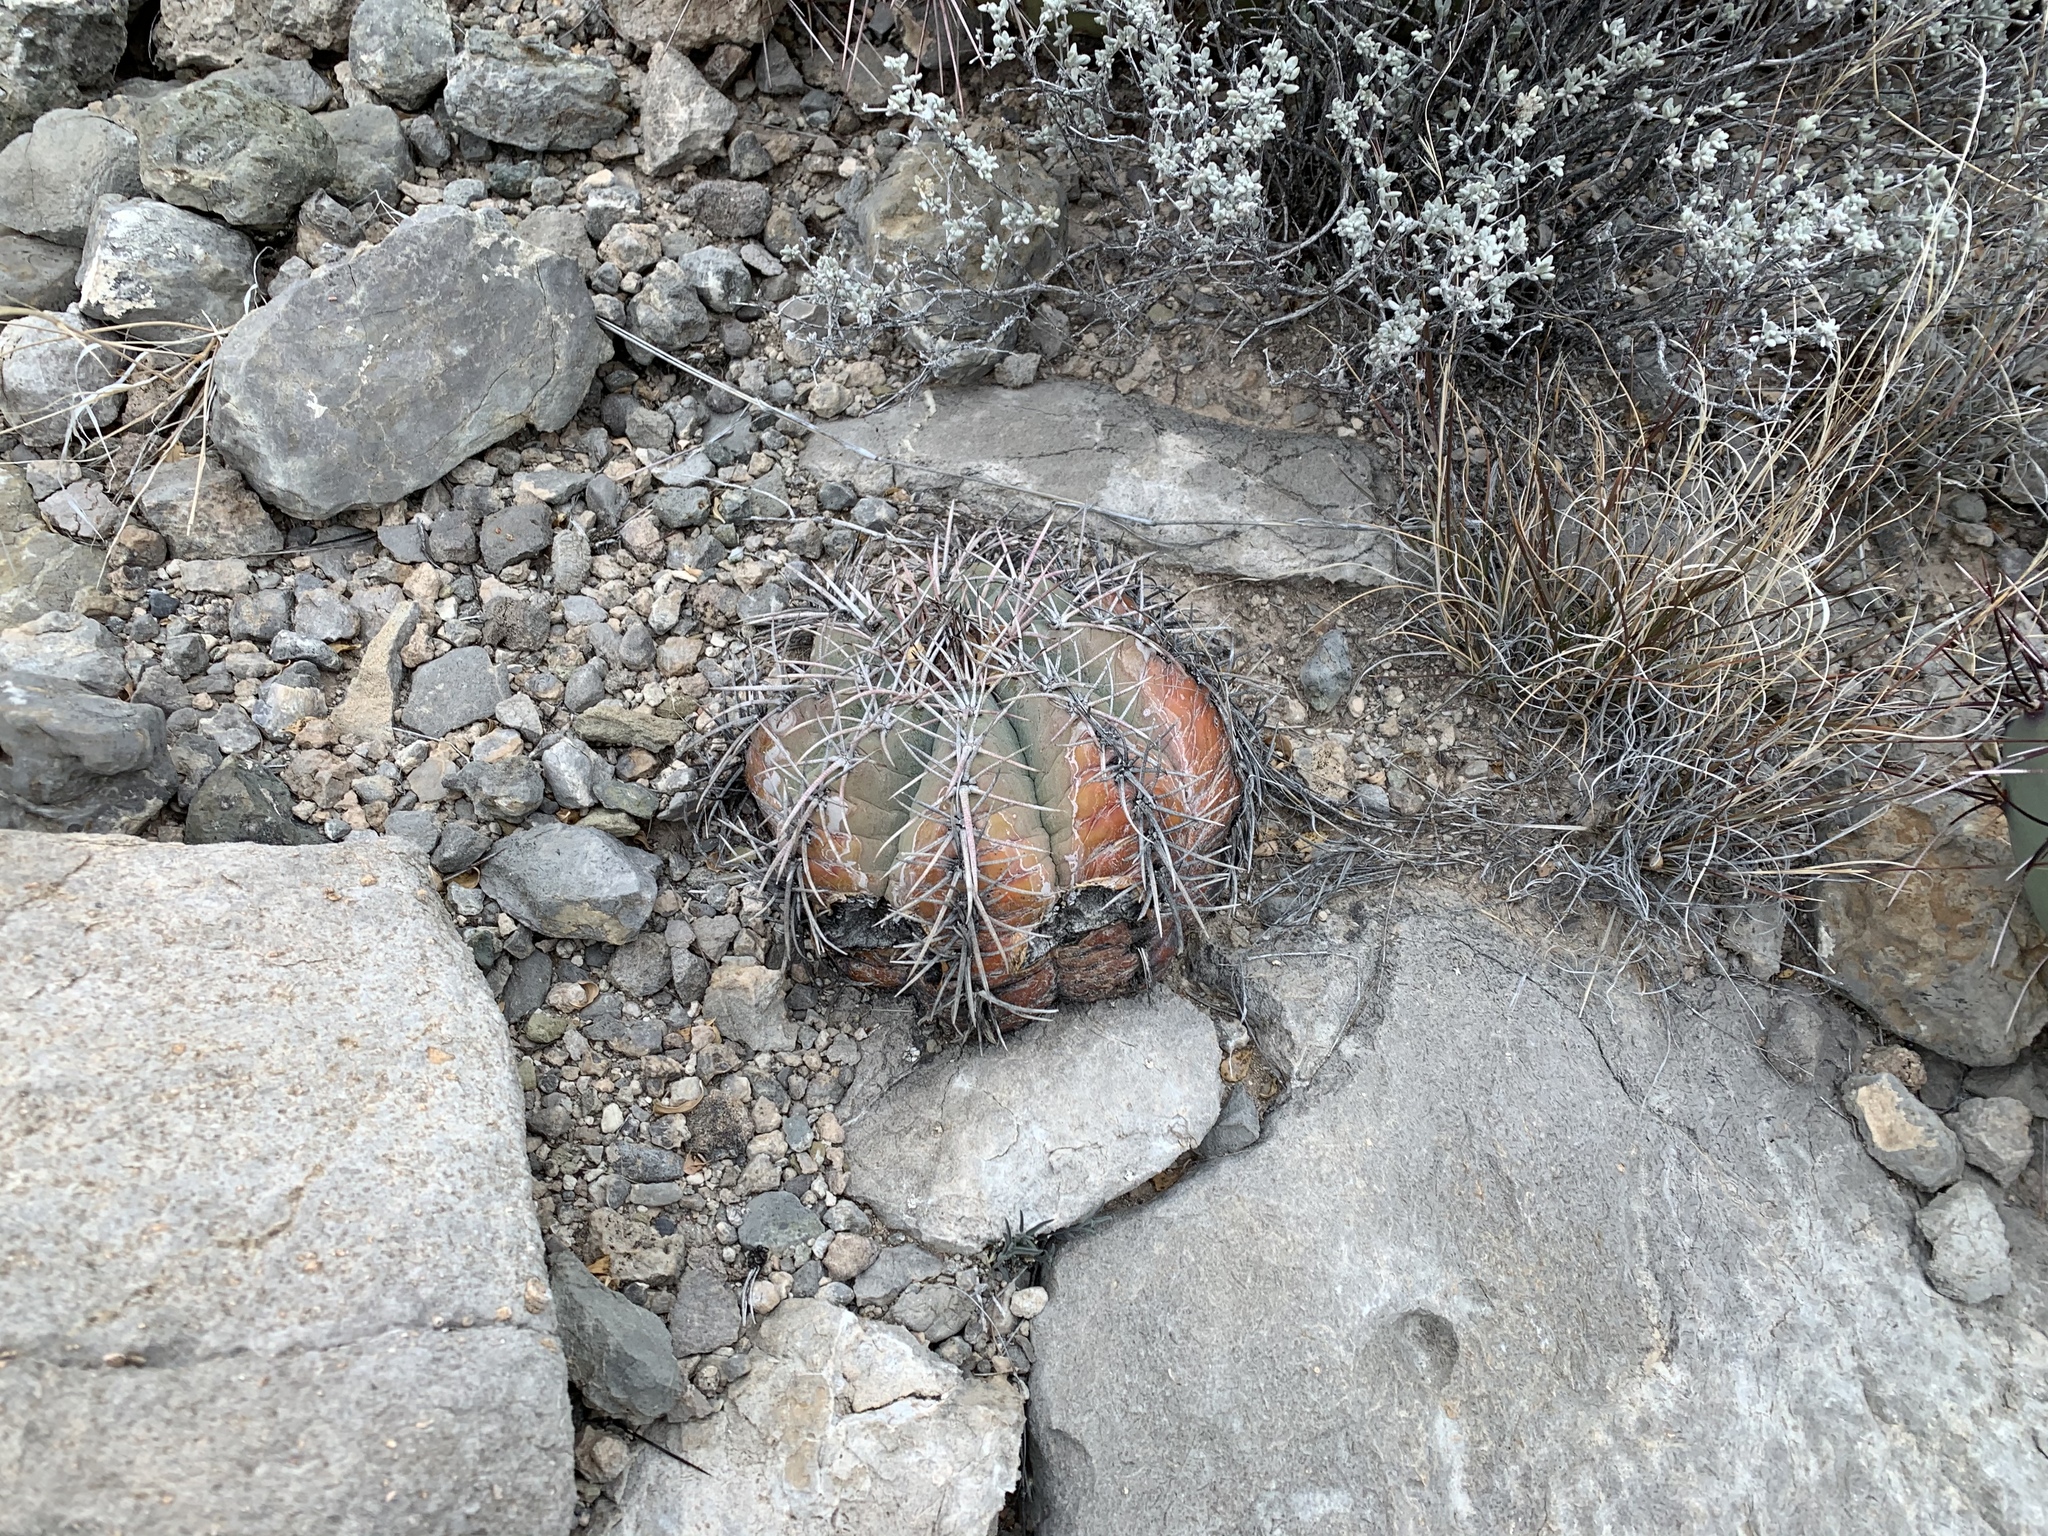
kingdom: Plantae
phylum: Tracheophyta
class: Magnoliopsida
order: Caryophyllales
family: Cactaceae
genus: Echinocactus
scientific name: Echinocactus horizonthalonius
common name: Devilshead
